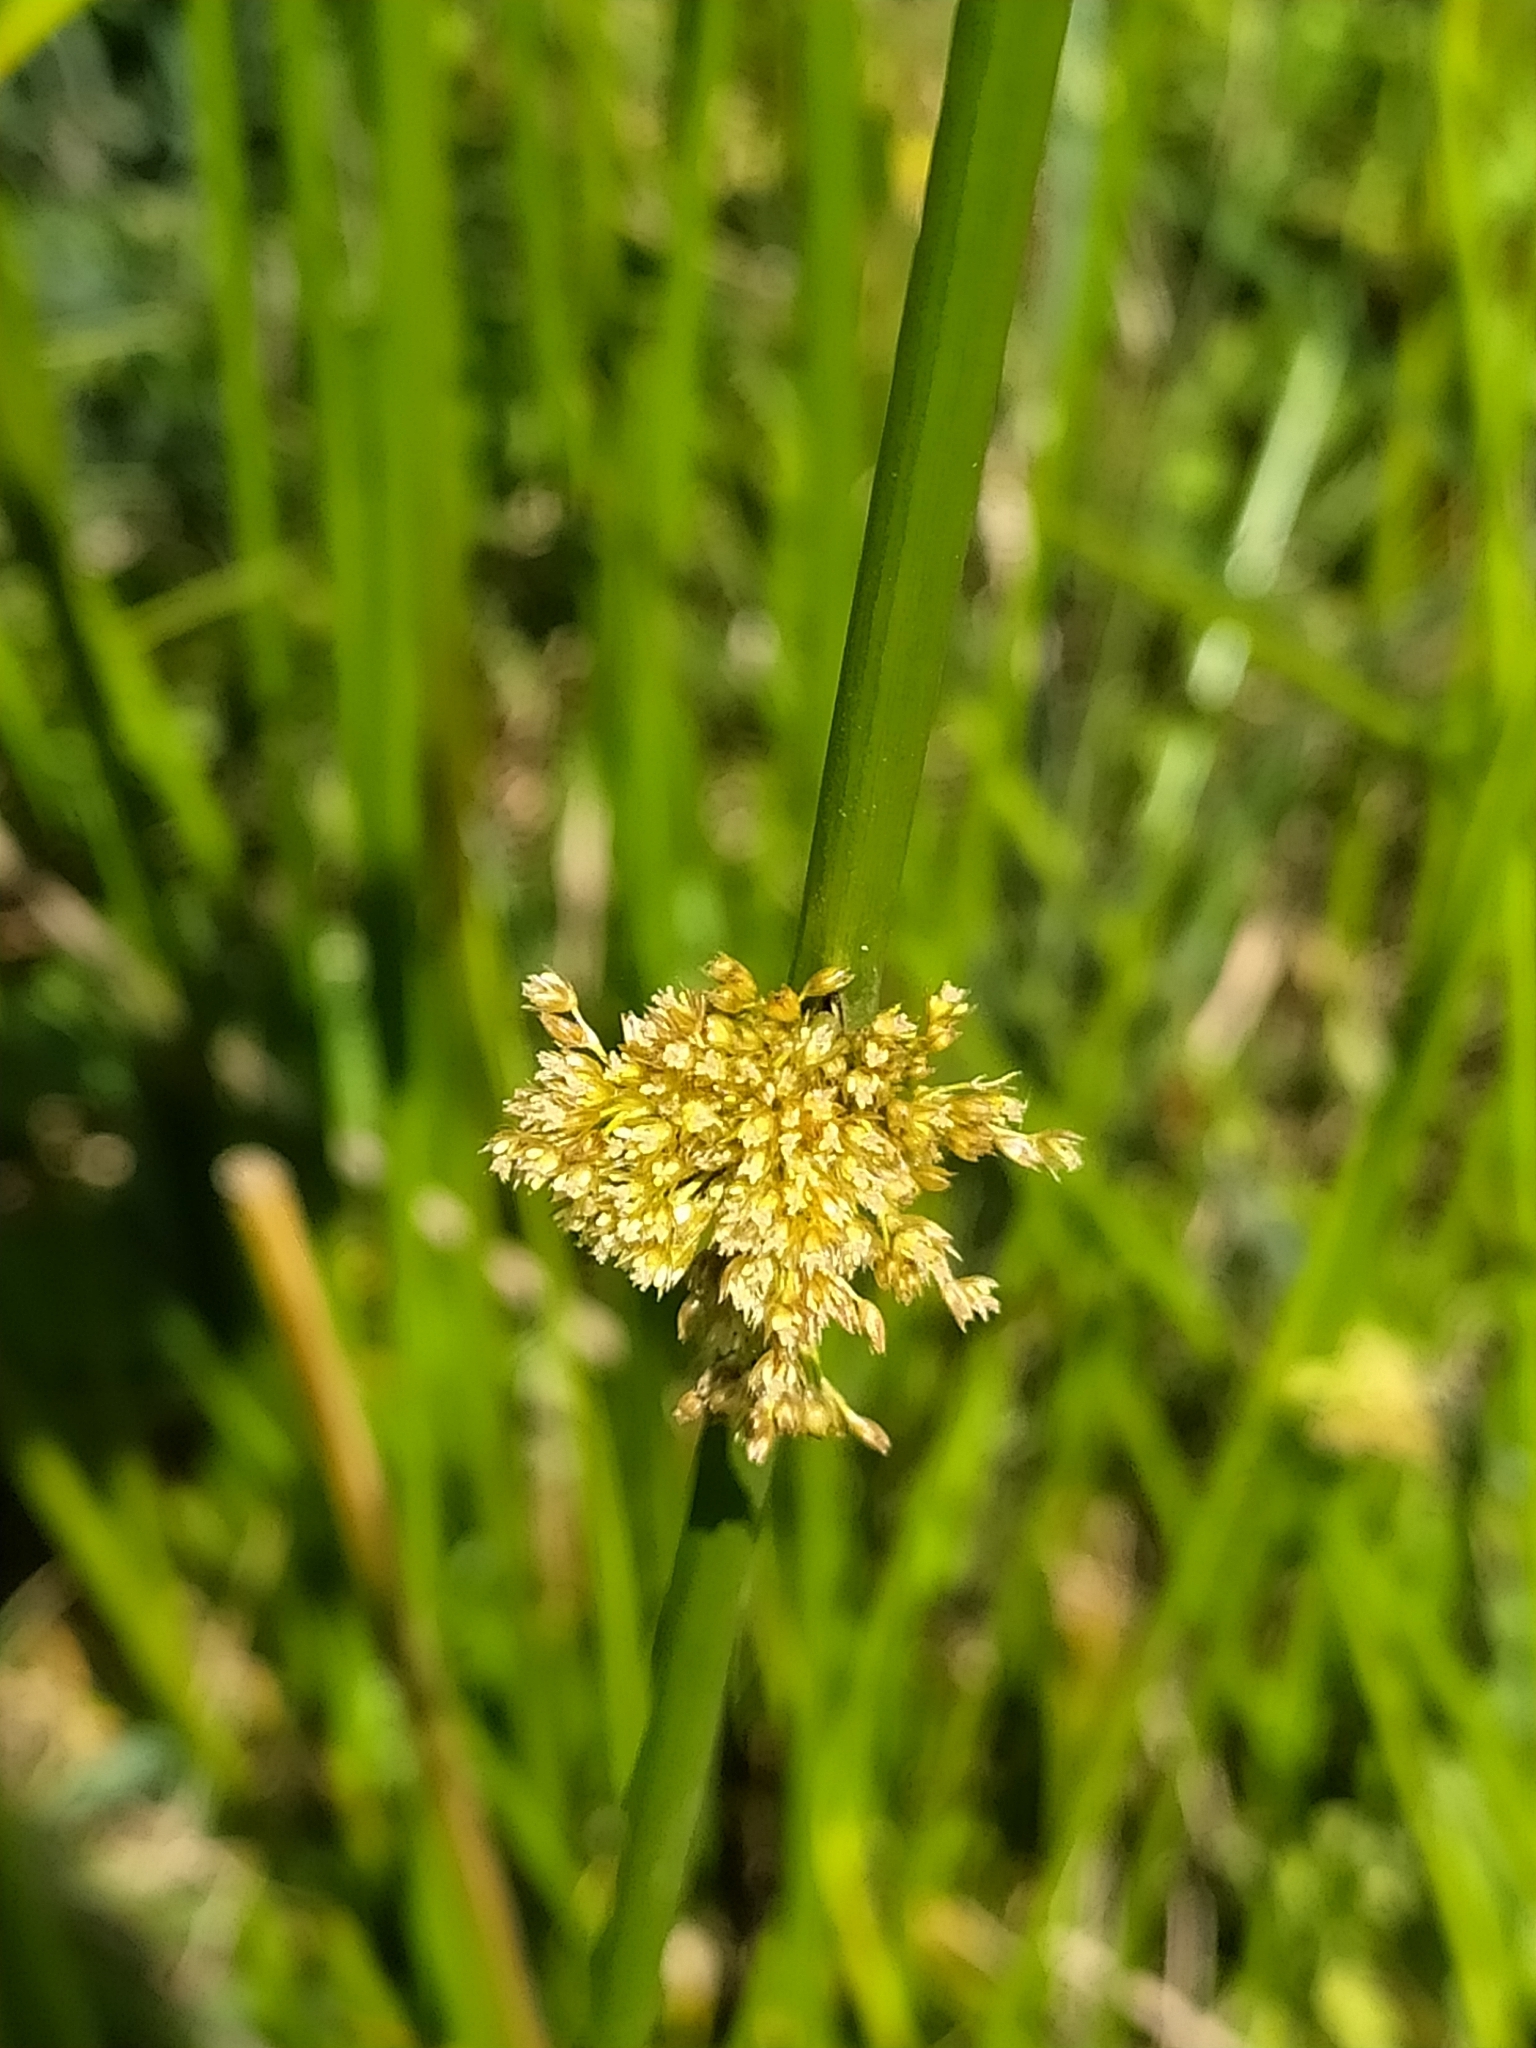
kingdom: Plantae
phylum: Tracheophyta
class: Liliopsida
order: Poales
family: Juncaceae
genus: Juncus
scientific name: Juncus effusus
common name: Soft rush
